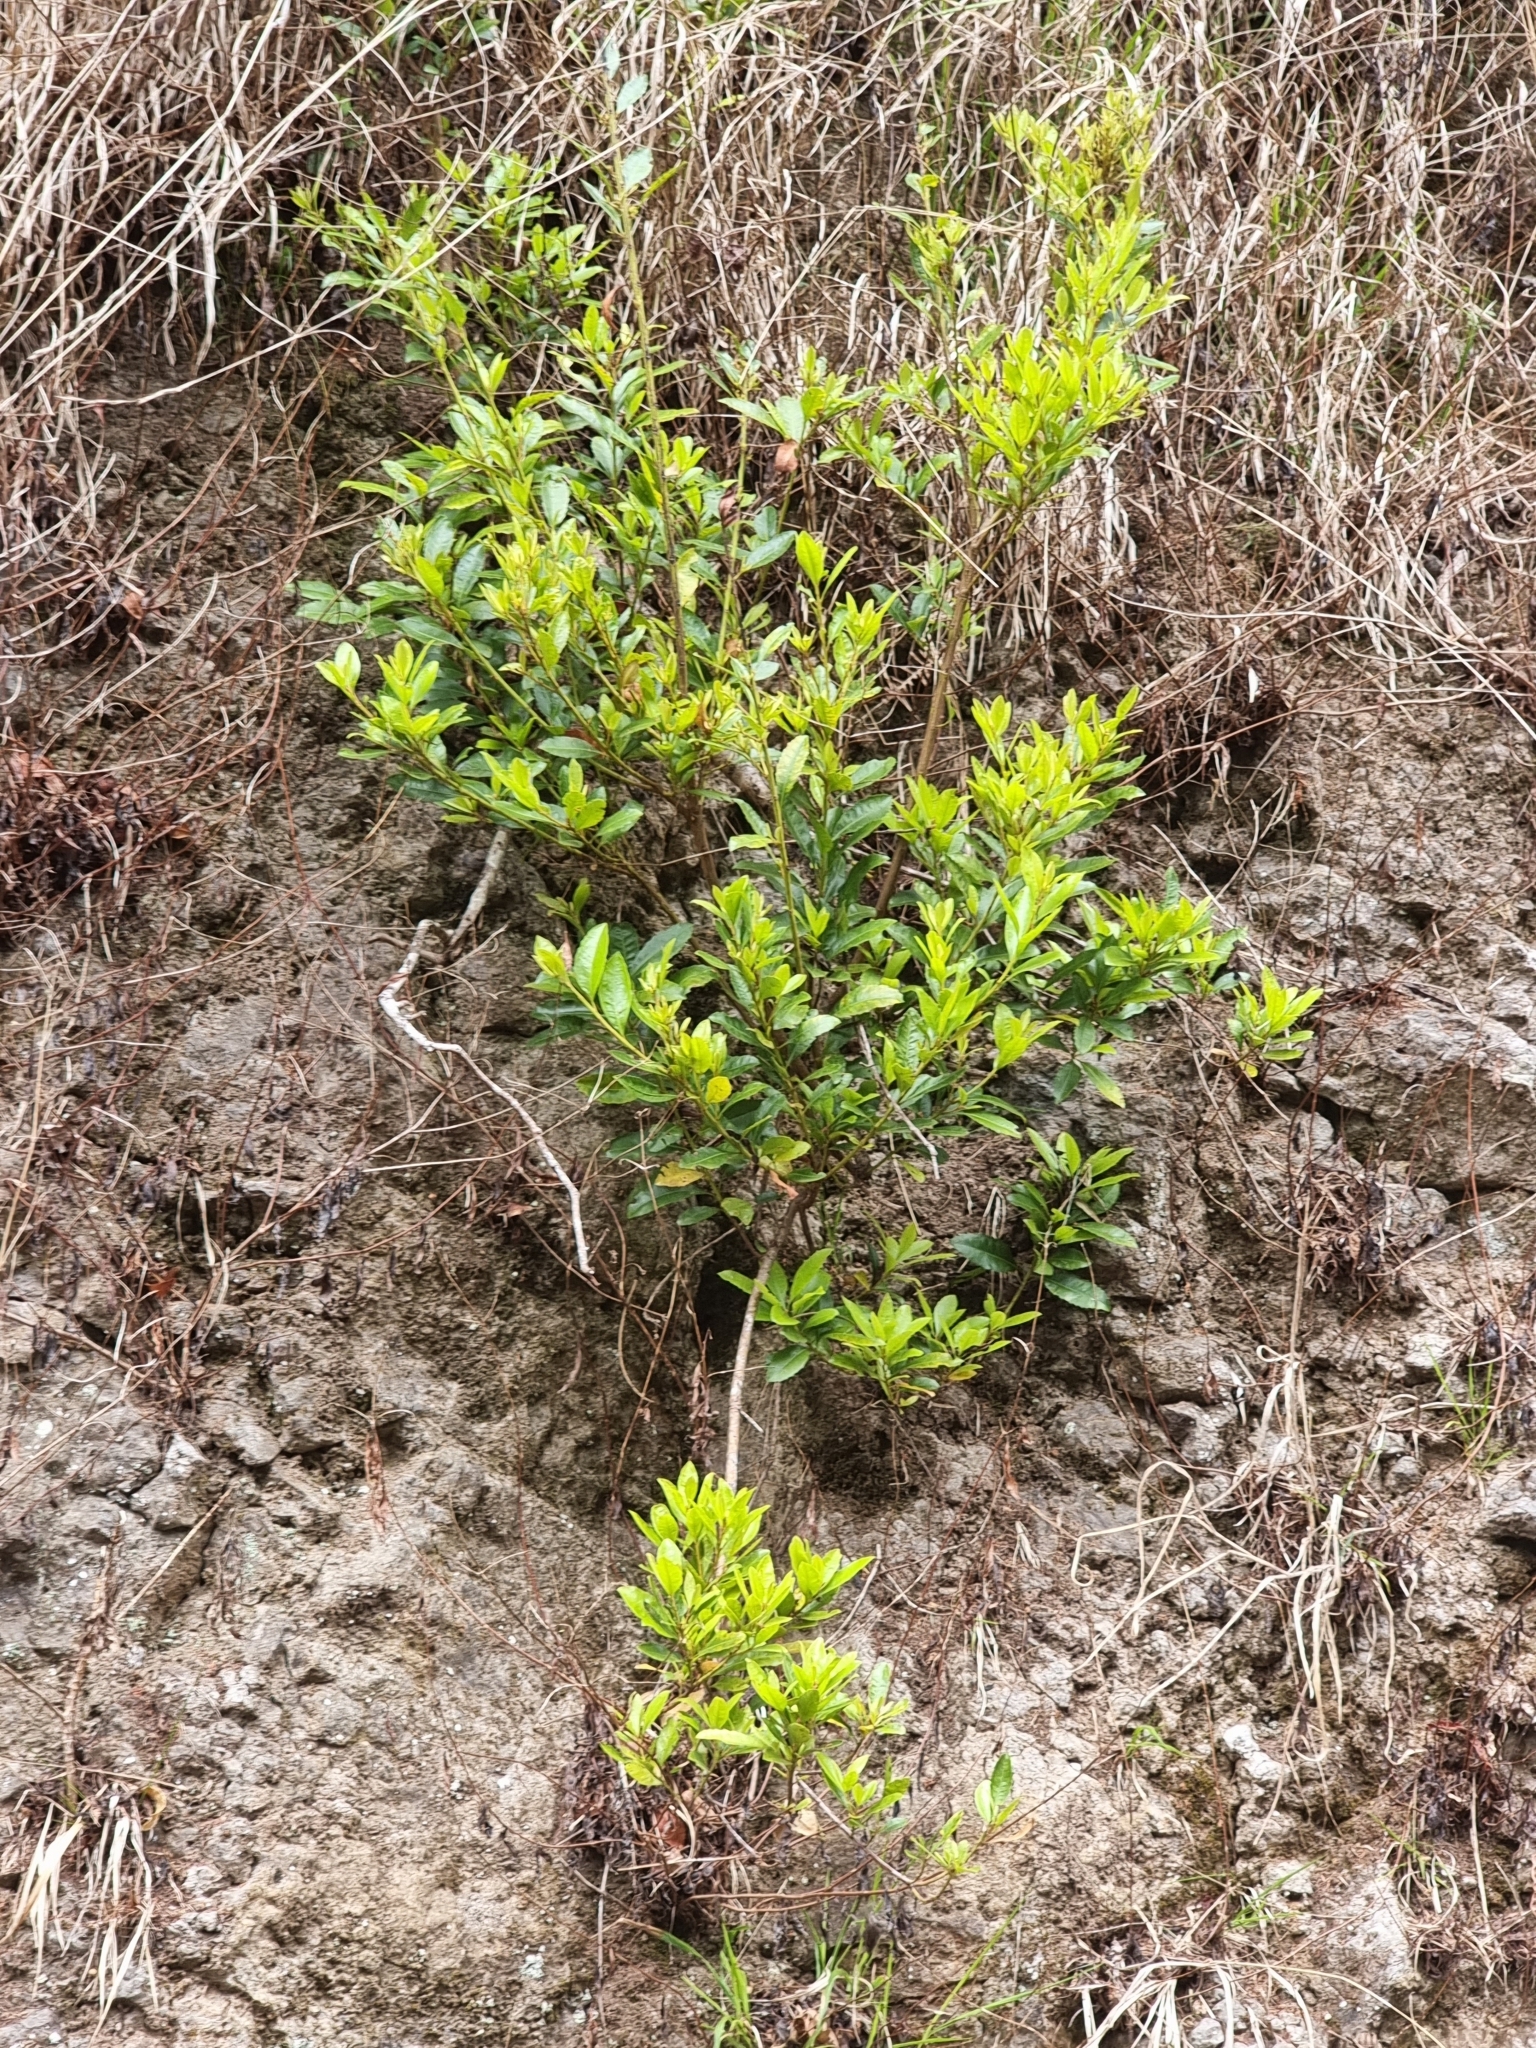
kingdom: Plantae
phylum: Tracheophyta
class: Magnoliopsida
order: Fagales
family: Myricaceae
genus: Morella
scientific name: Morella faya
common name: Firetree
